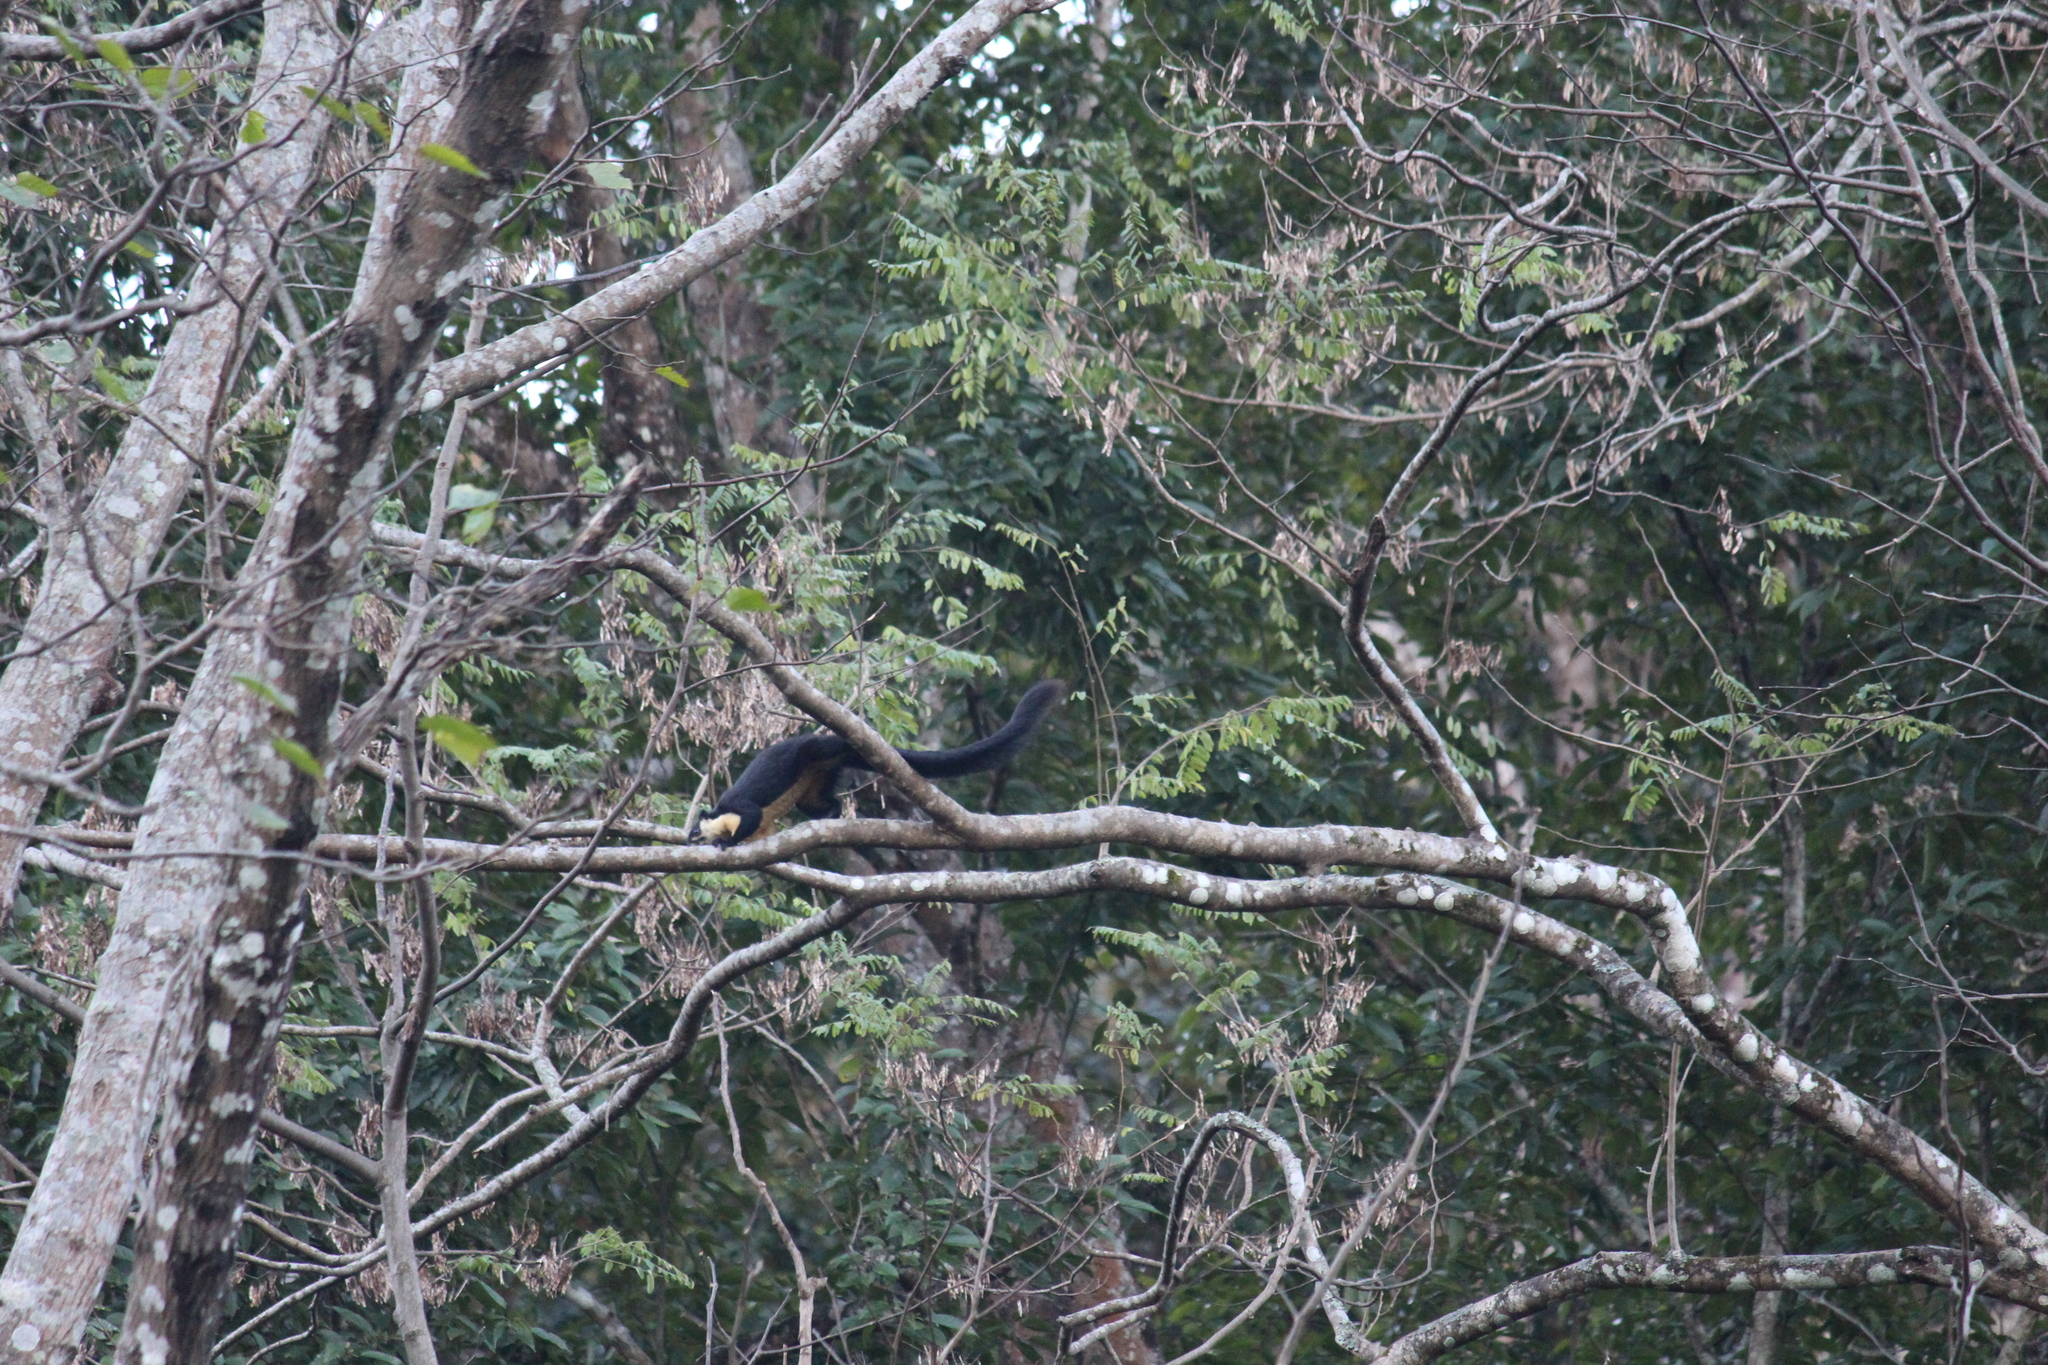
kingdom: Animalia
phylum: Chordata
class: Mammalia
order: Rodentia
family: Sciuridae
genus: Ratufa
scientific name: Ratufa bicolor
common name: Black giant squirrel
